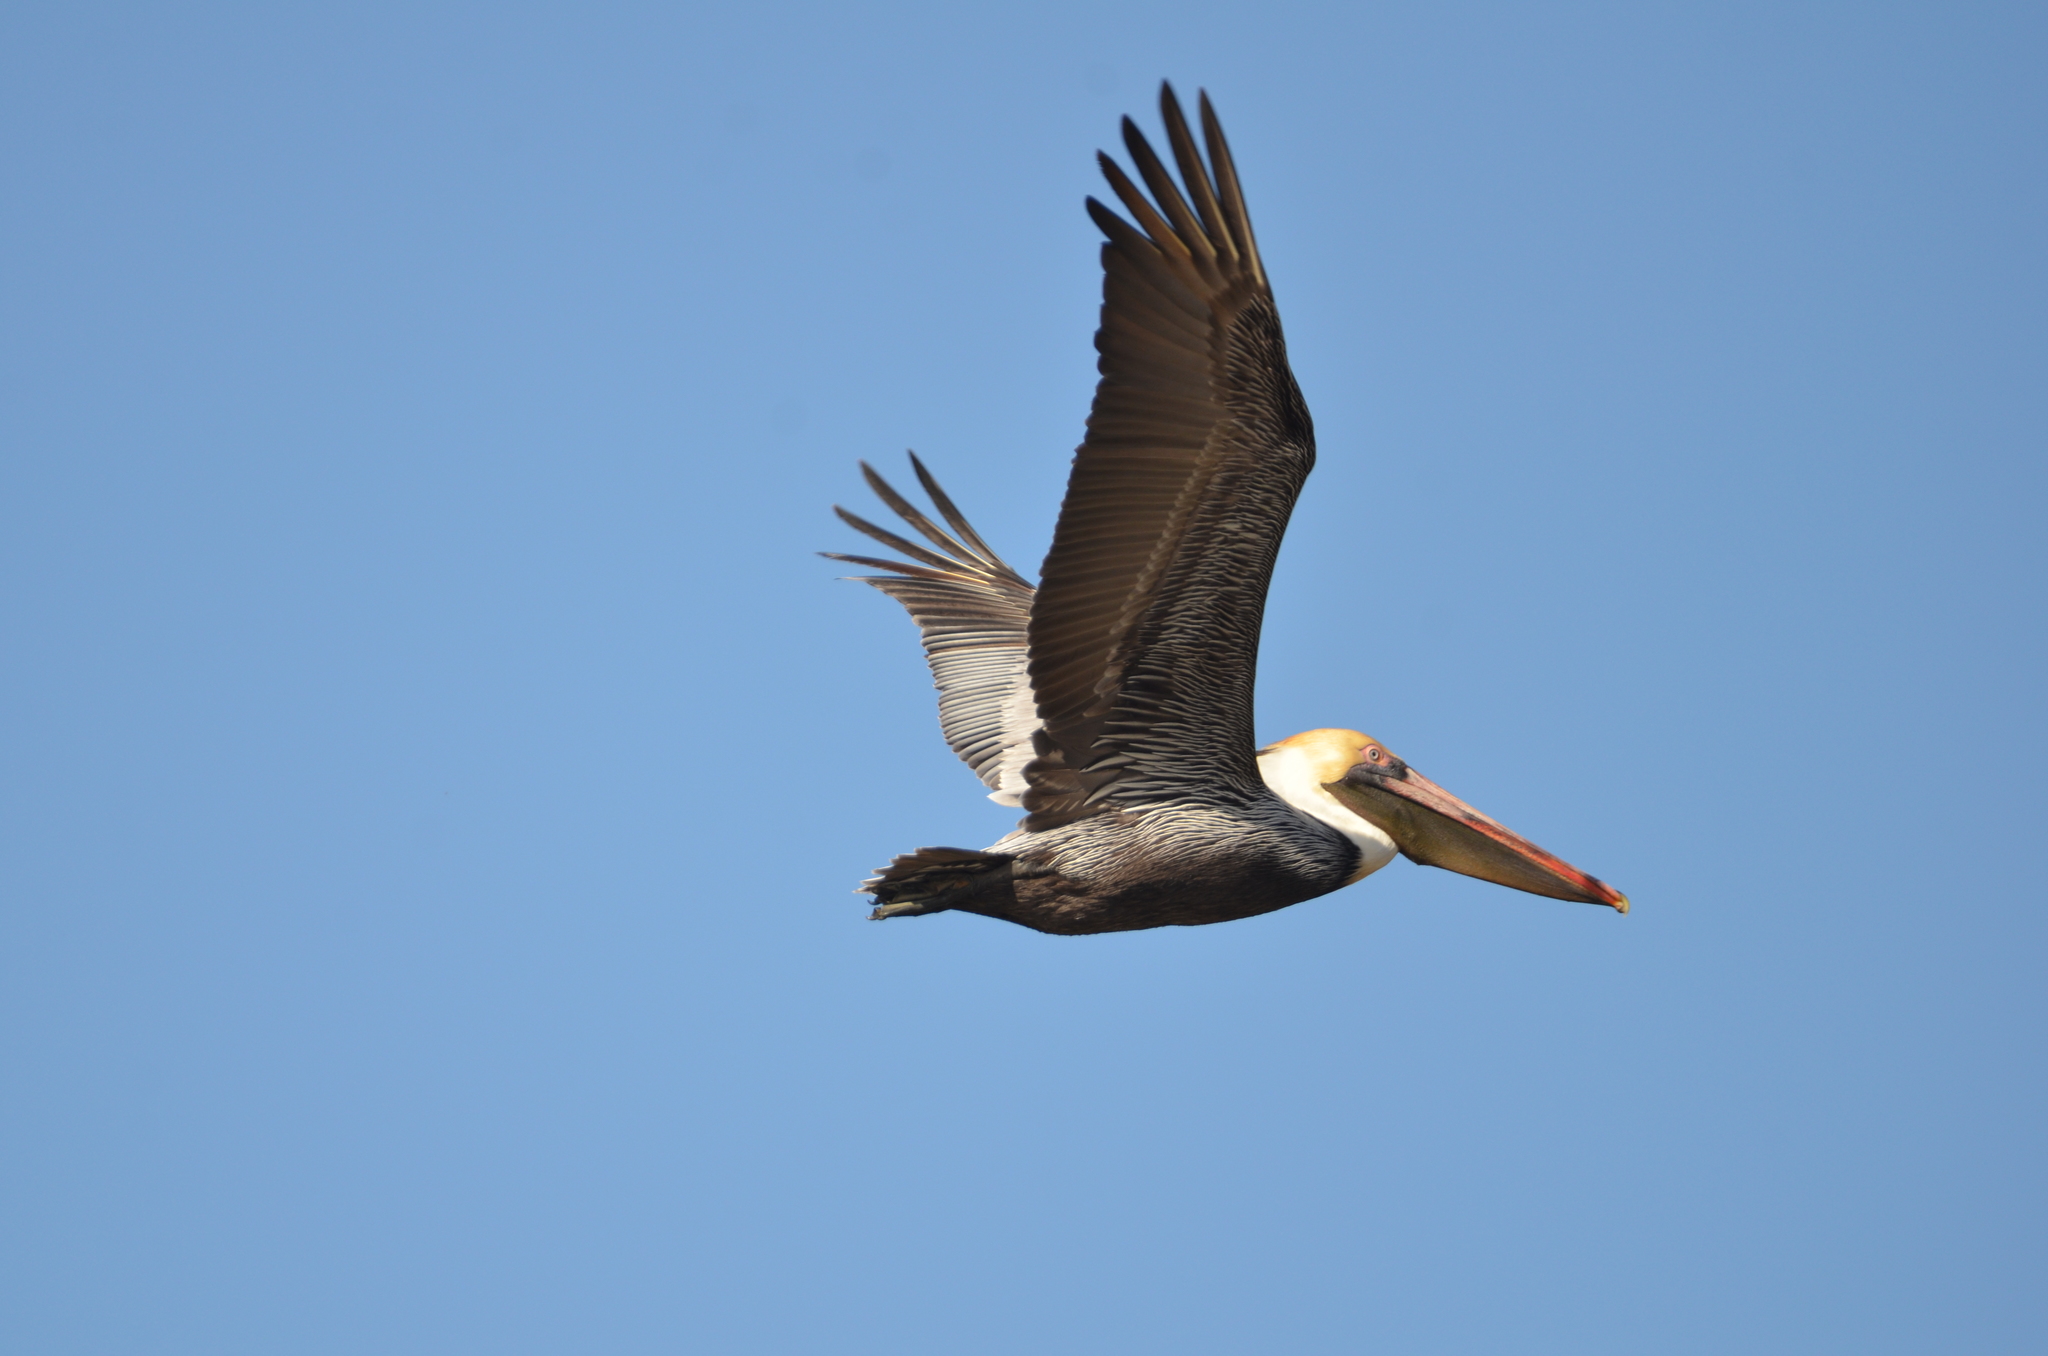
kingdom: Animalia
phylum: Chordata
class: Aves
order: Pelecaniformes
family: Pelecanidae
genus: Pelecanus
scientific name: Pelecanus occidentalis
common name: Brown pelican
